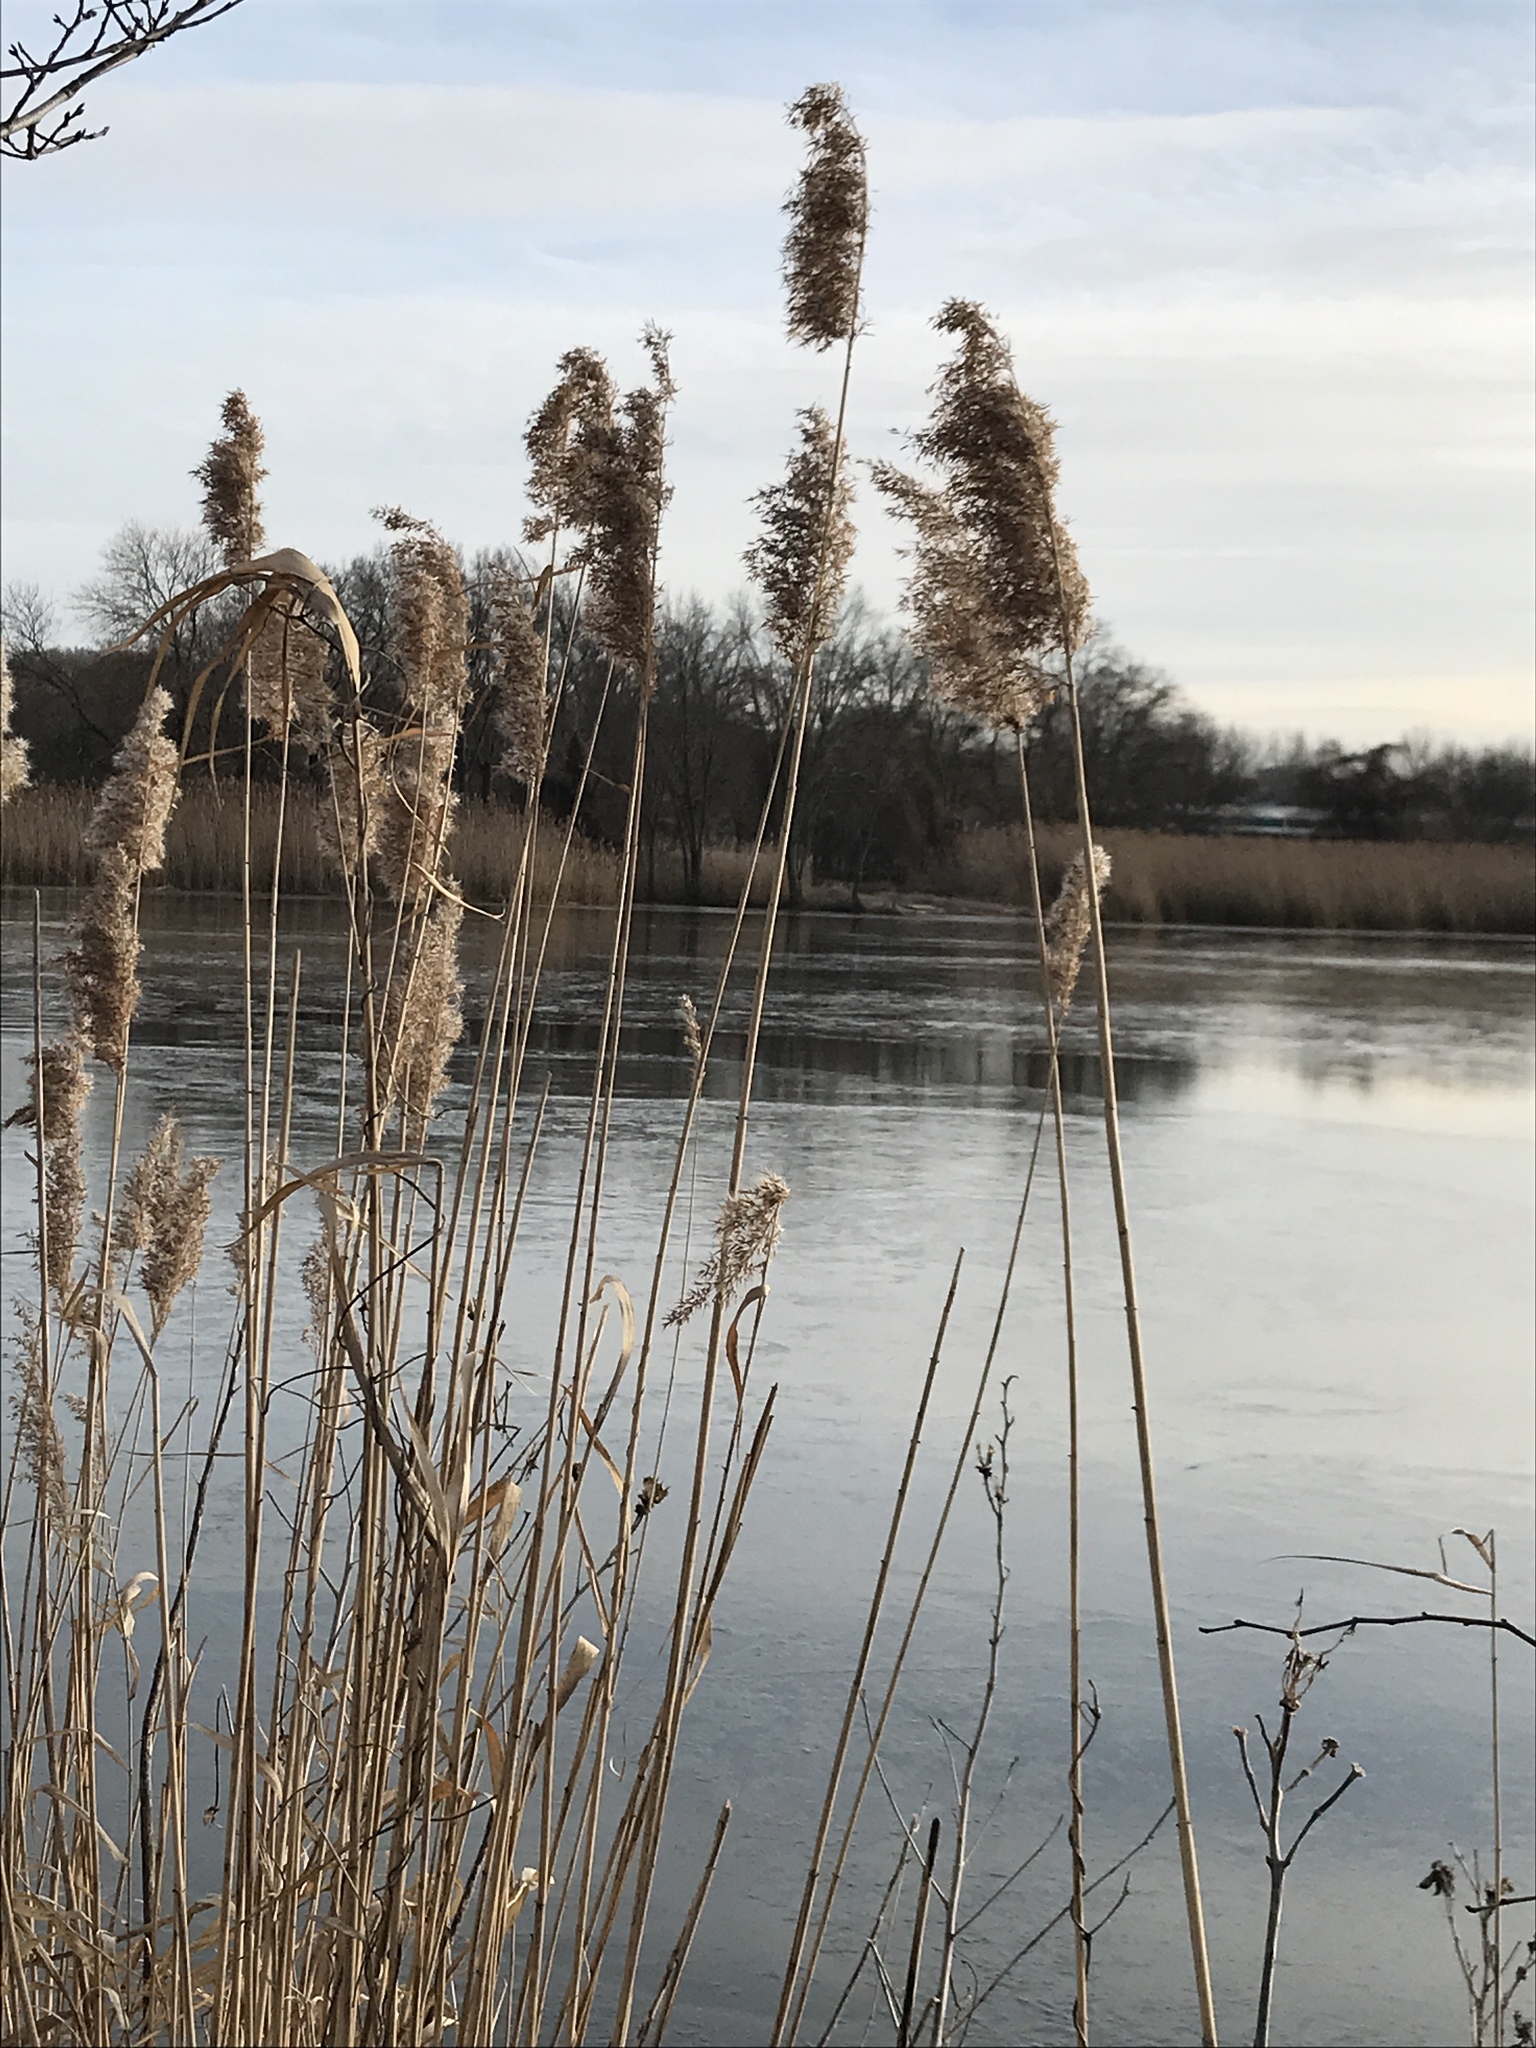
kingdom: Plantae
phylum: Tracheophyta
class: Liliopsida
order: Poales
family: Poaceae
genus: Phragmites
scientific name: Phragmites australis
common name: Common reed
